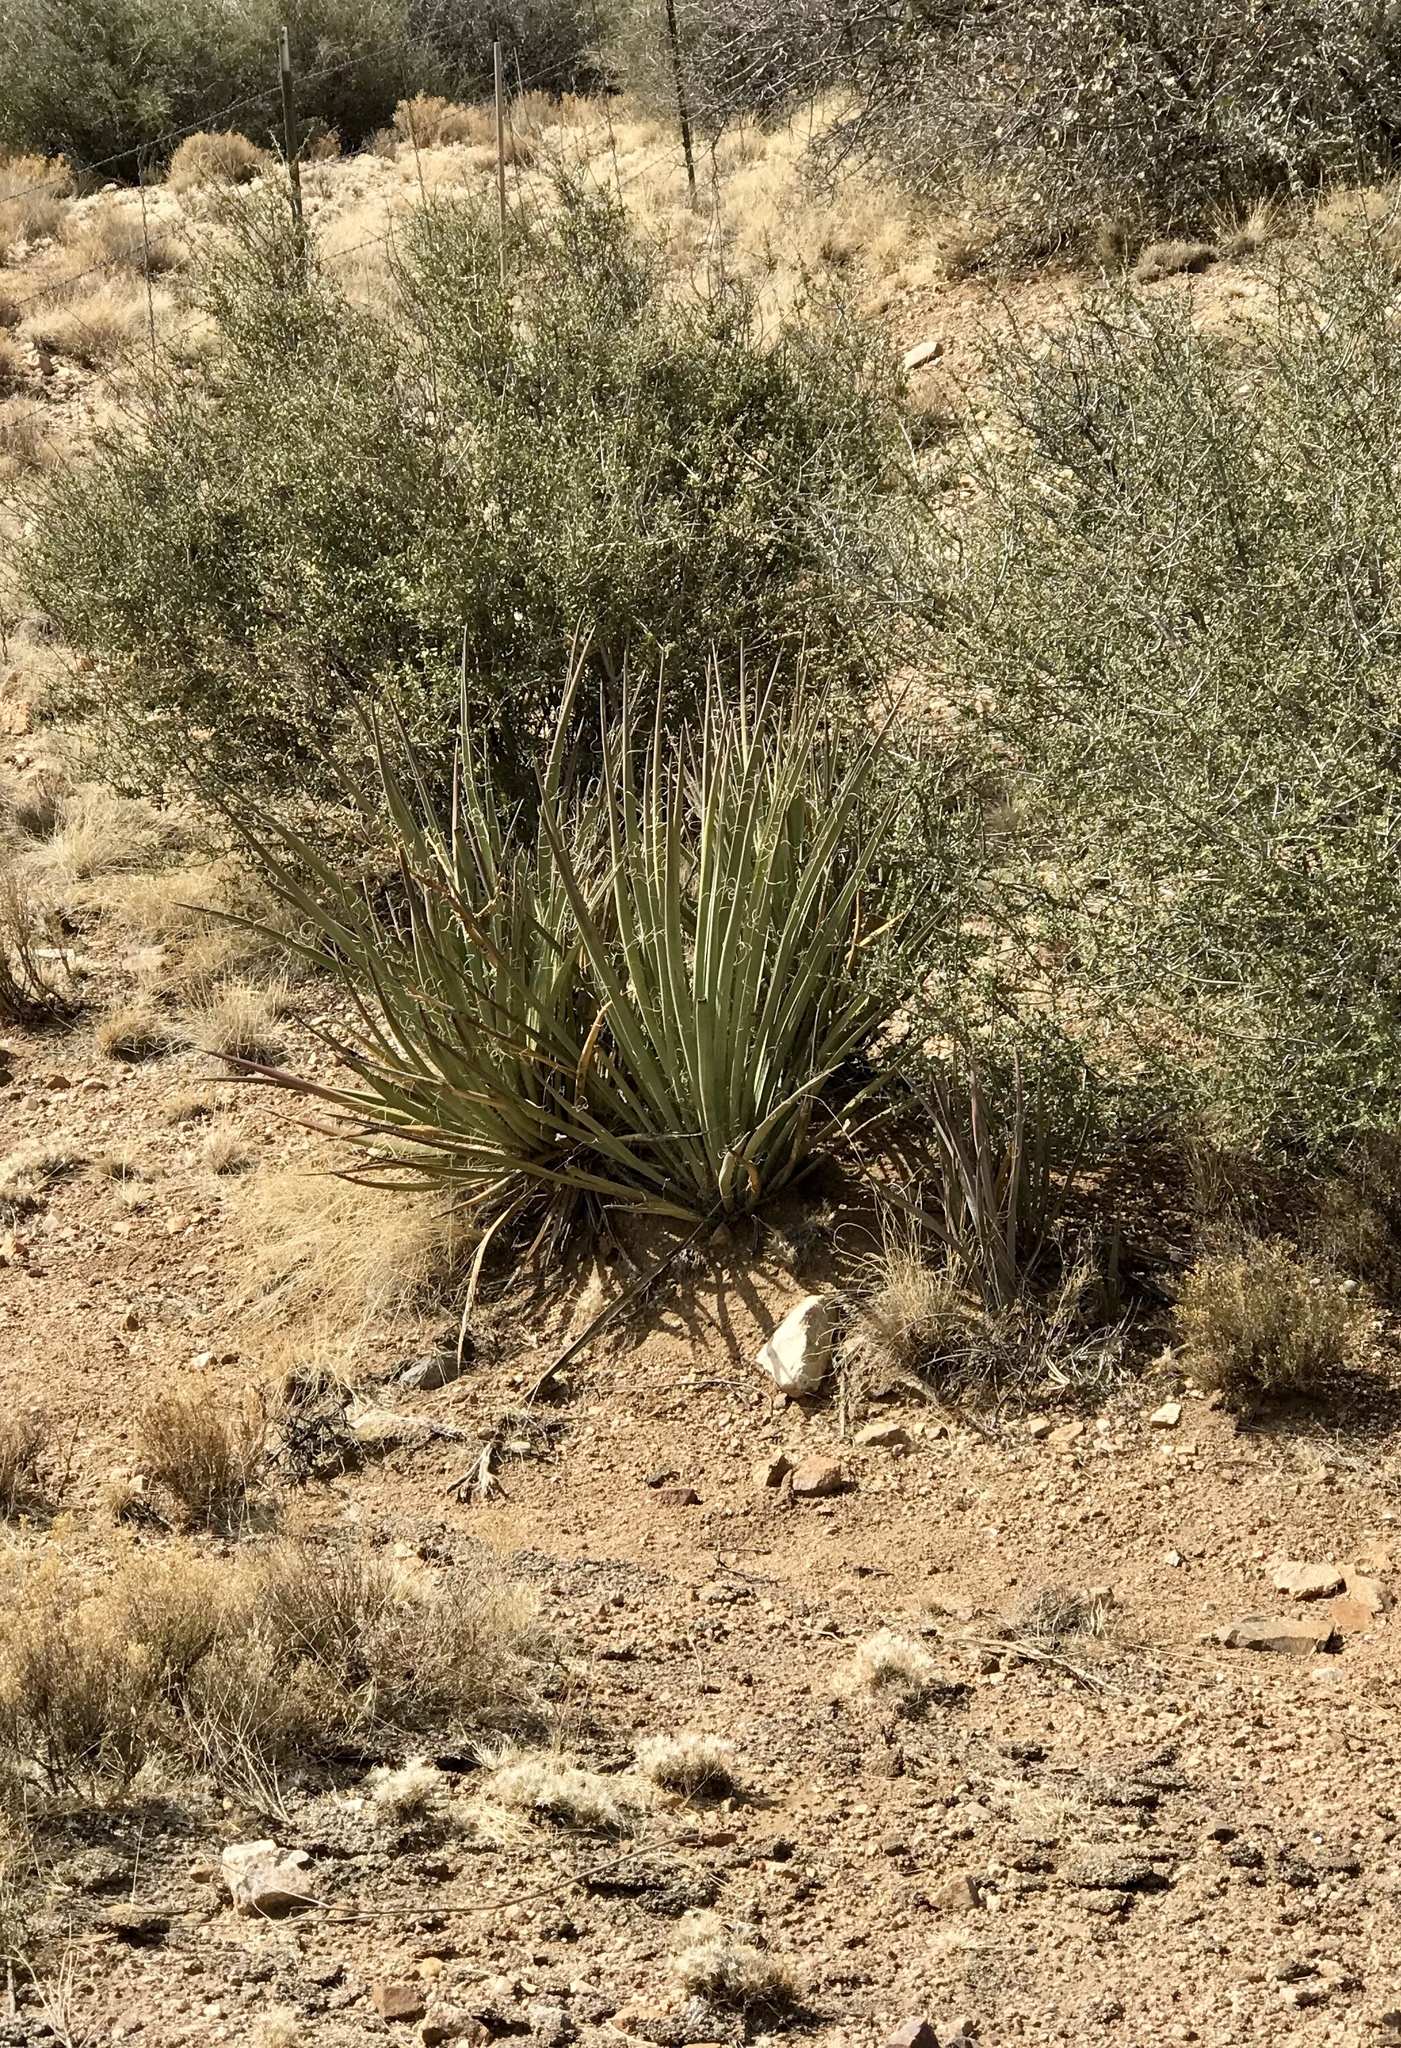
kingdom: Plantae
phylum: Tracheophyta
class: Liliopsida
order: Asparagales
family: Asparagaceae
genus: Yucca
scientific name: Yucca baccata
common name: Banana yucca
